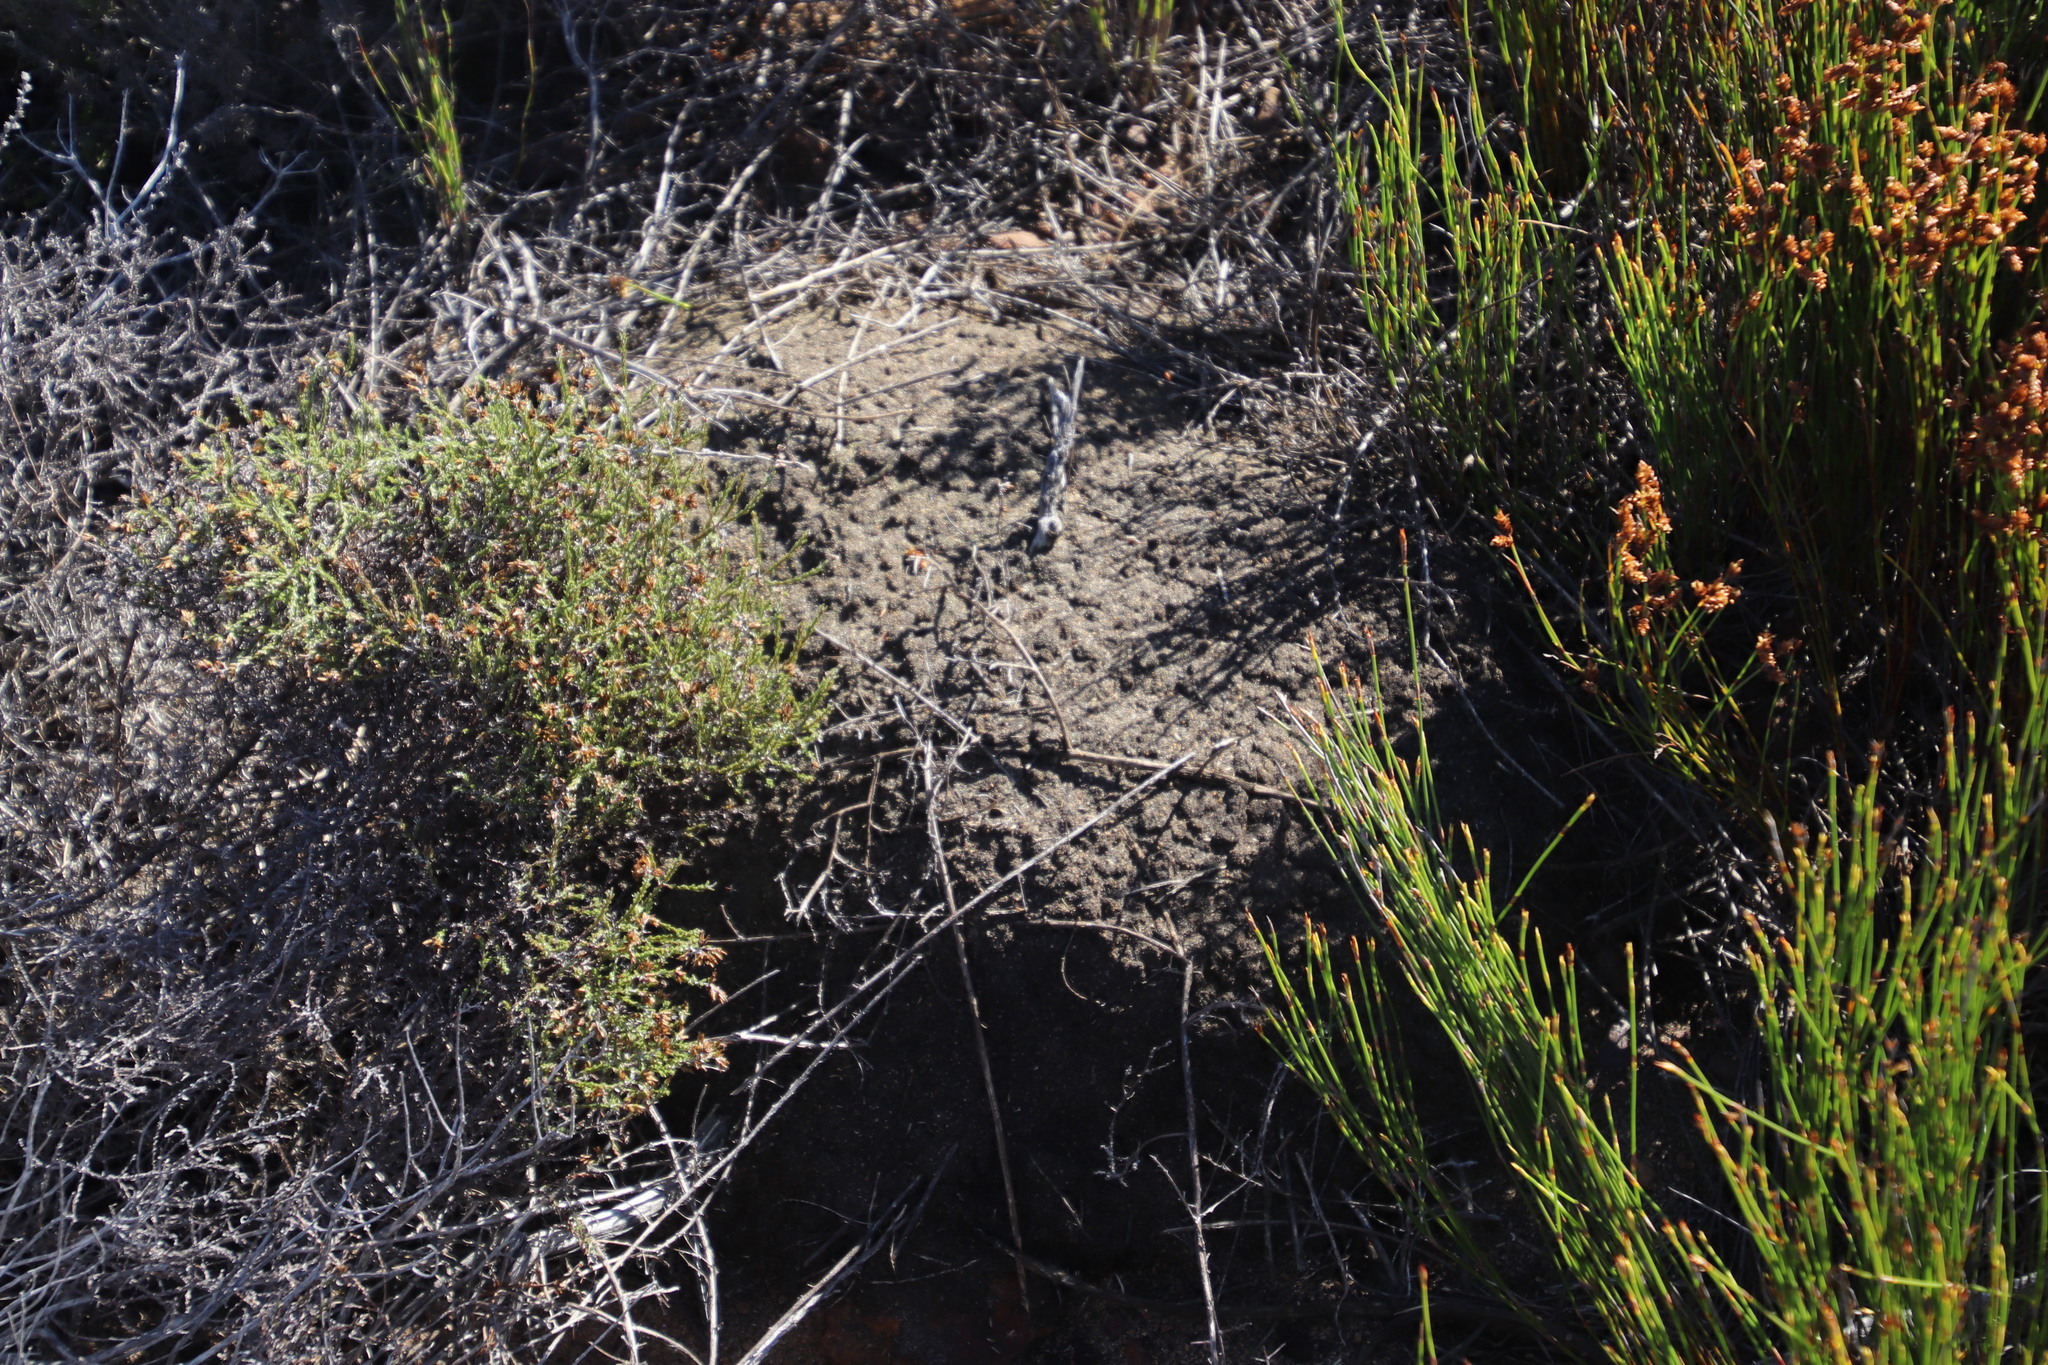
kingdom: Animalia
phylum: Arthropoda
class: Insecta
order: Blattodea
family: Termitidae
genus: Amitermes
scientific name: Amitermes hastatus
